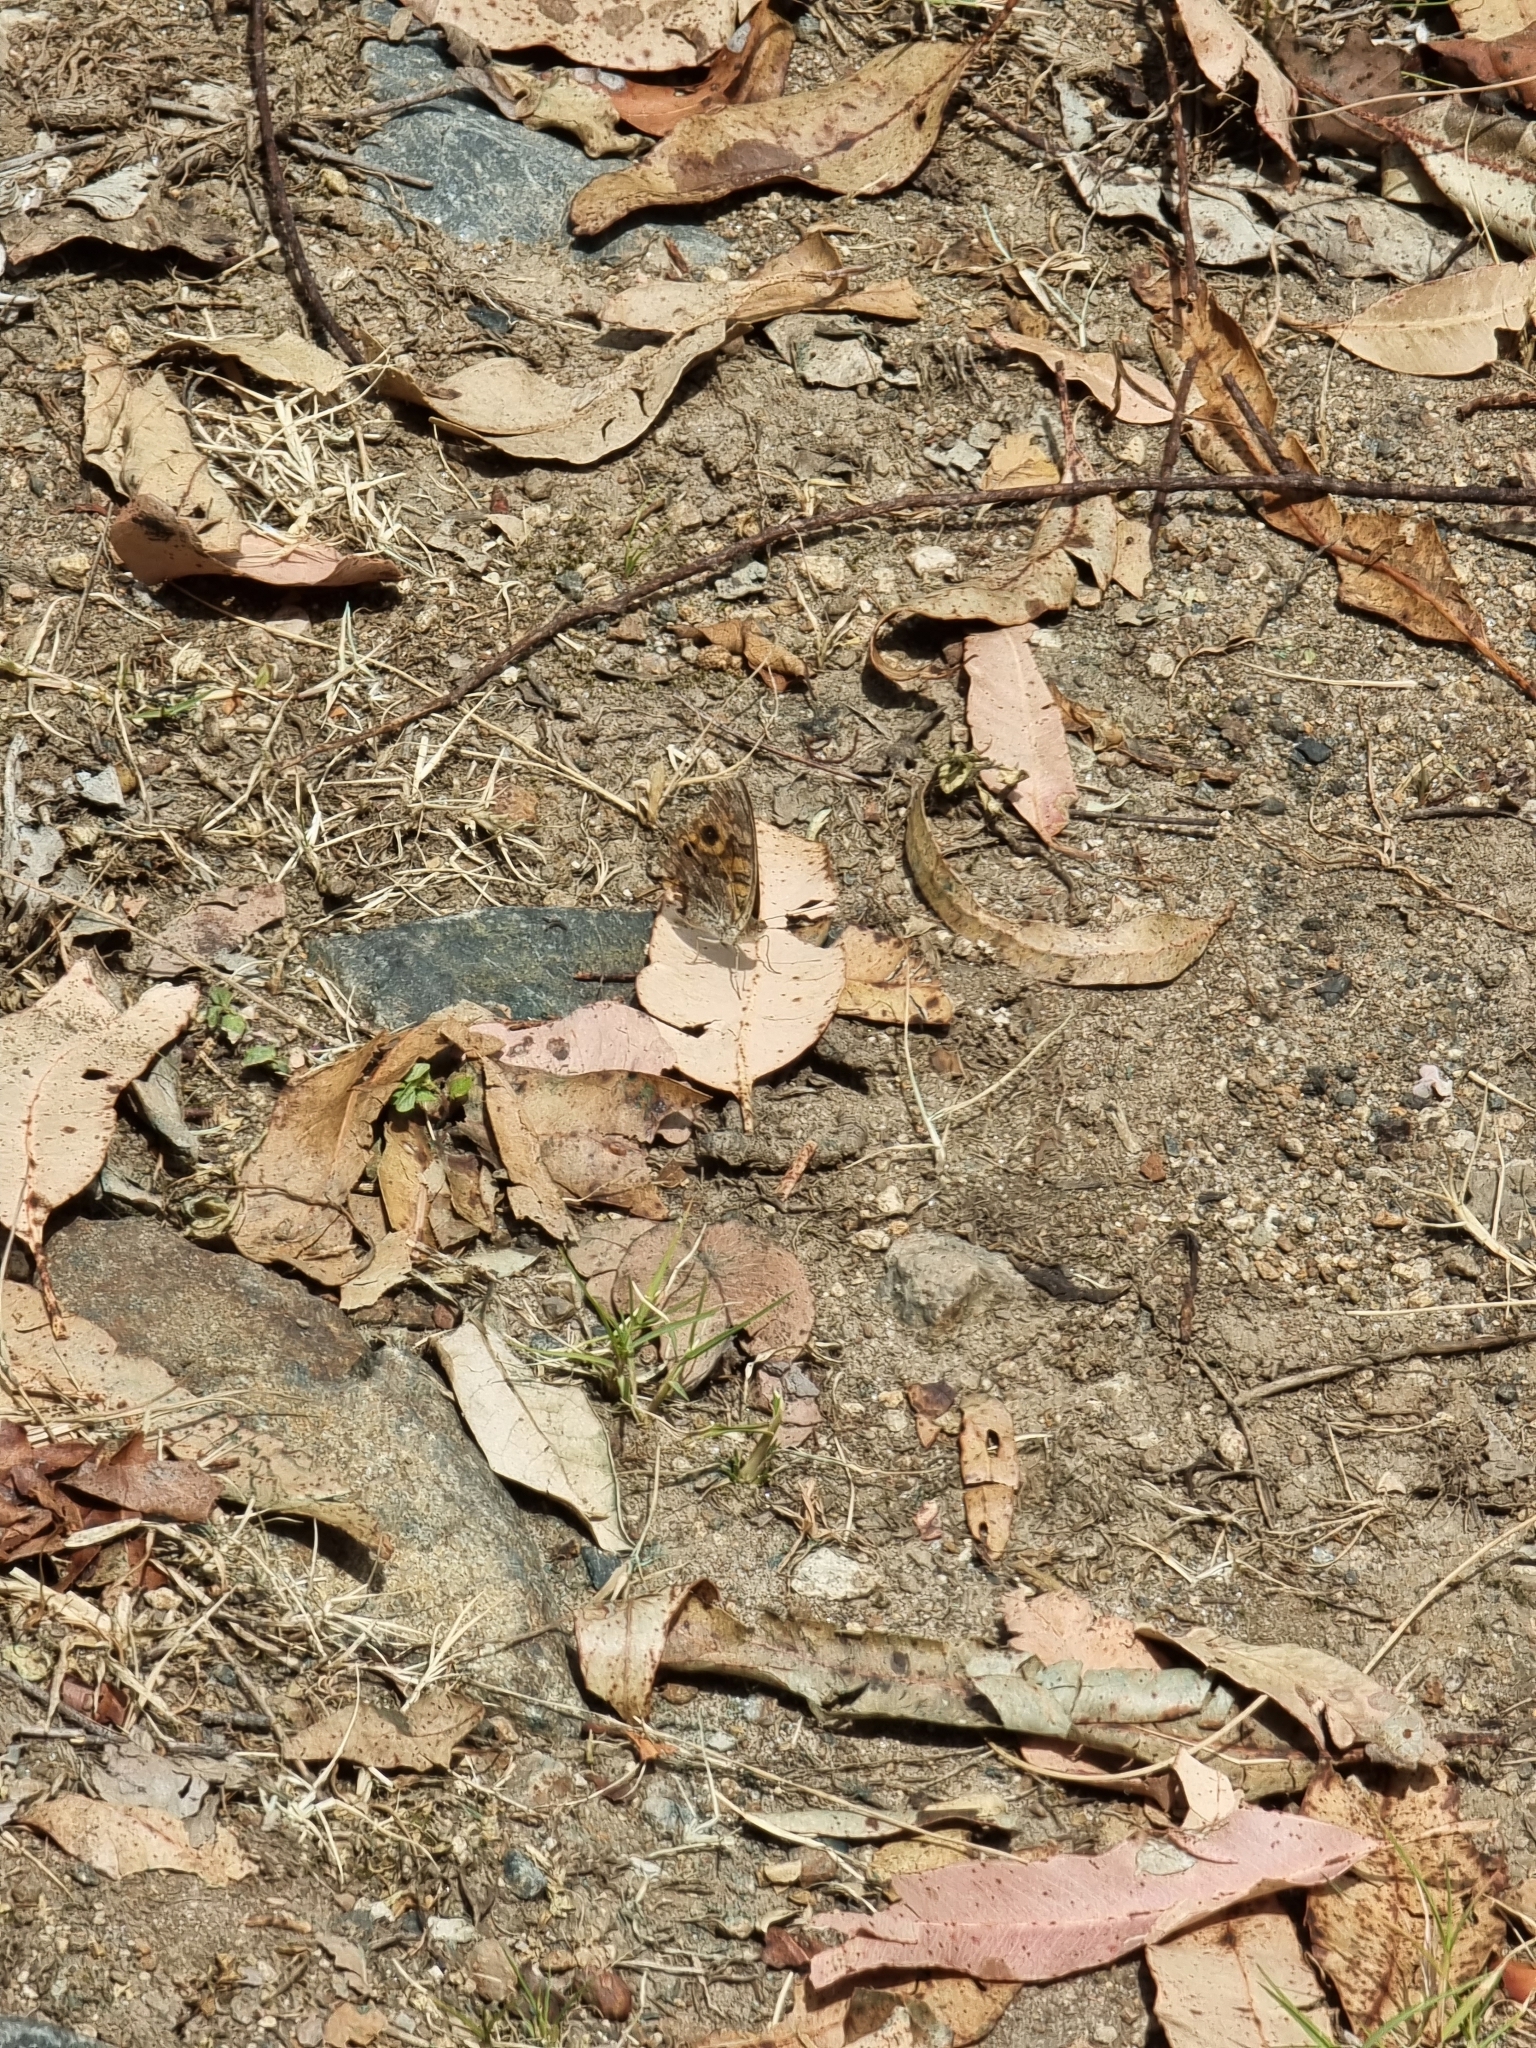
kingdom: Animalia
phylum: Arthropoda
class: Insecta
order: Lepidoptera
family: Nymphalidae
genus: Junonia
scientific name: Junonia villida
